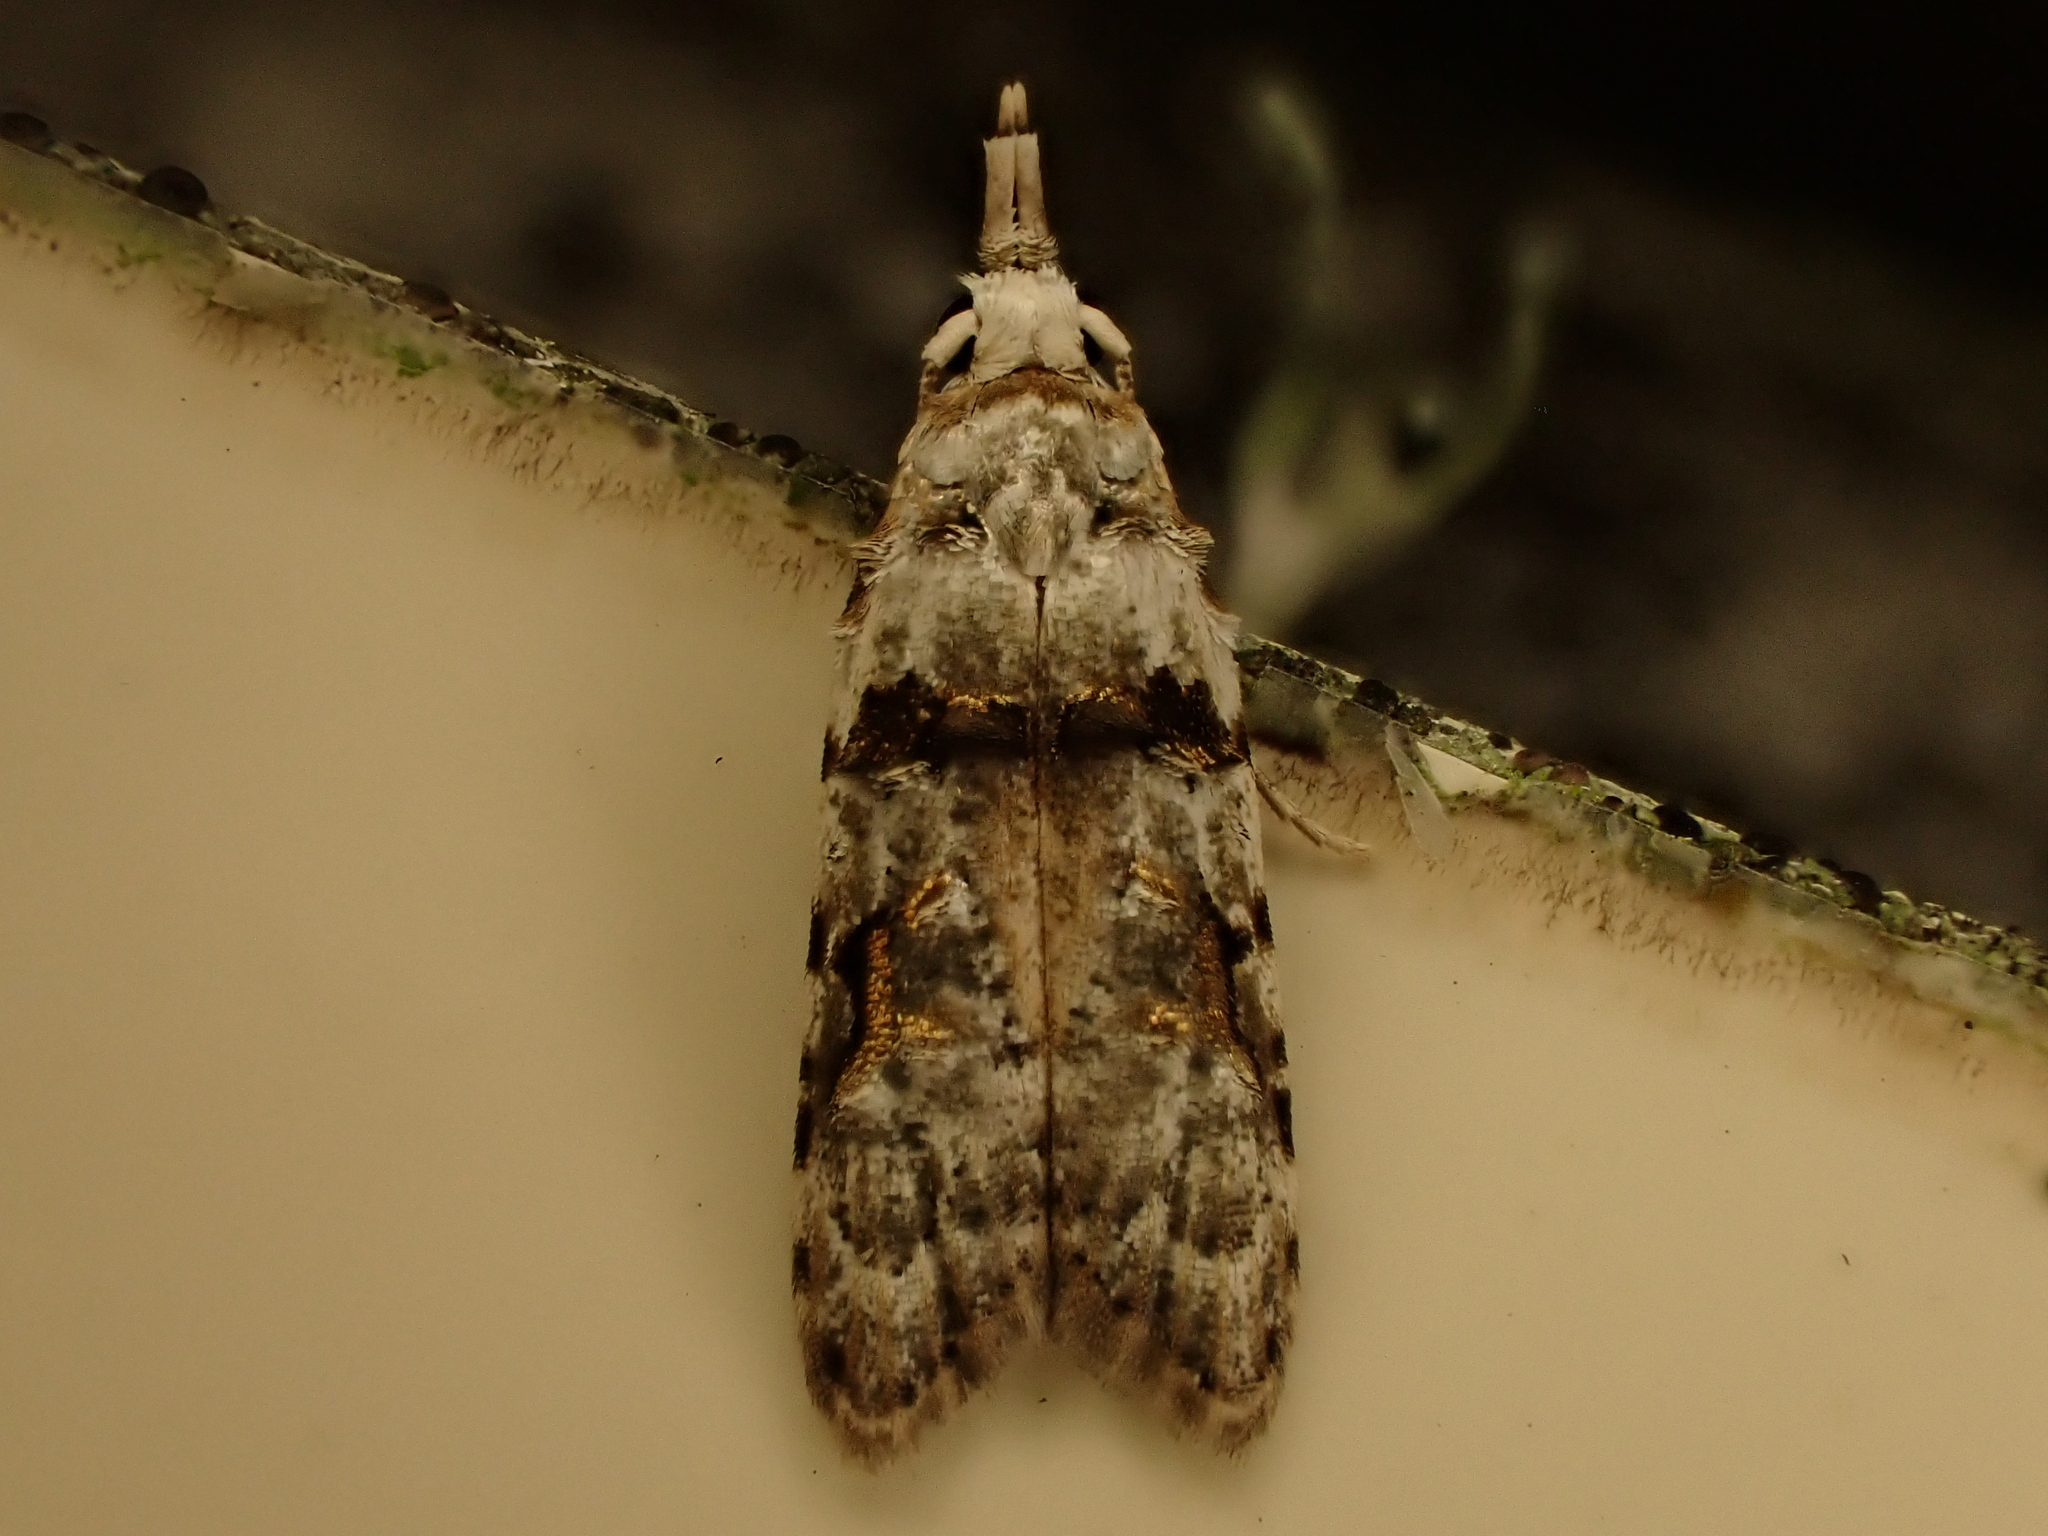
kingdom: Animalia
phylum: Arthropoda
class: Insecta
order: Lepidoptera
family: Carposinidae
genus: Coscinoptycha
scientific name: Coscinoptycha improbana
